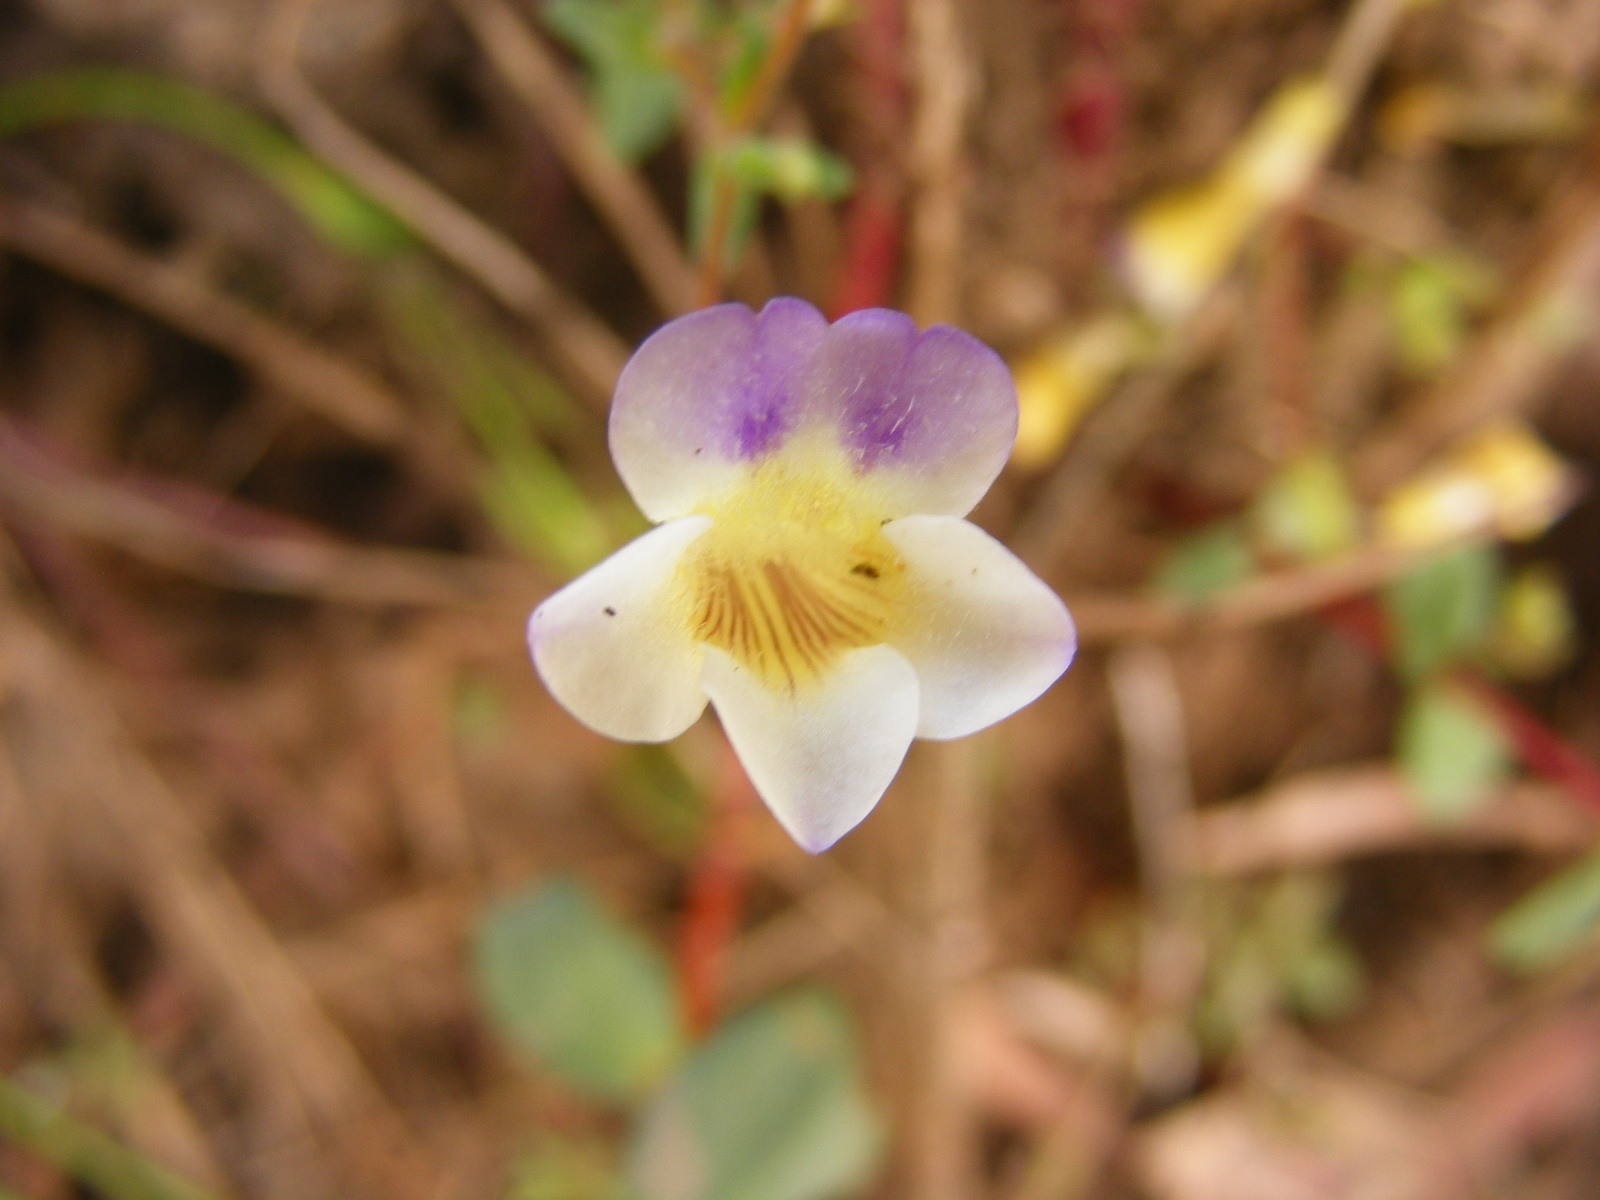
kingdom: Plantae
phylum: Tracheophyta
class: Magnoliopsida
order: Lamiales
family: Plantaginaceae
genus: Limnophila
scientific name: Limnophila brownii
